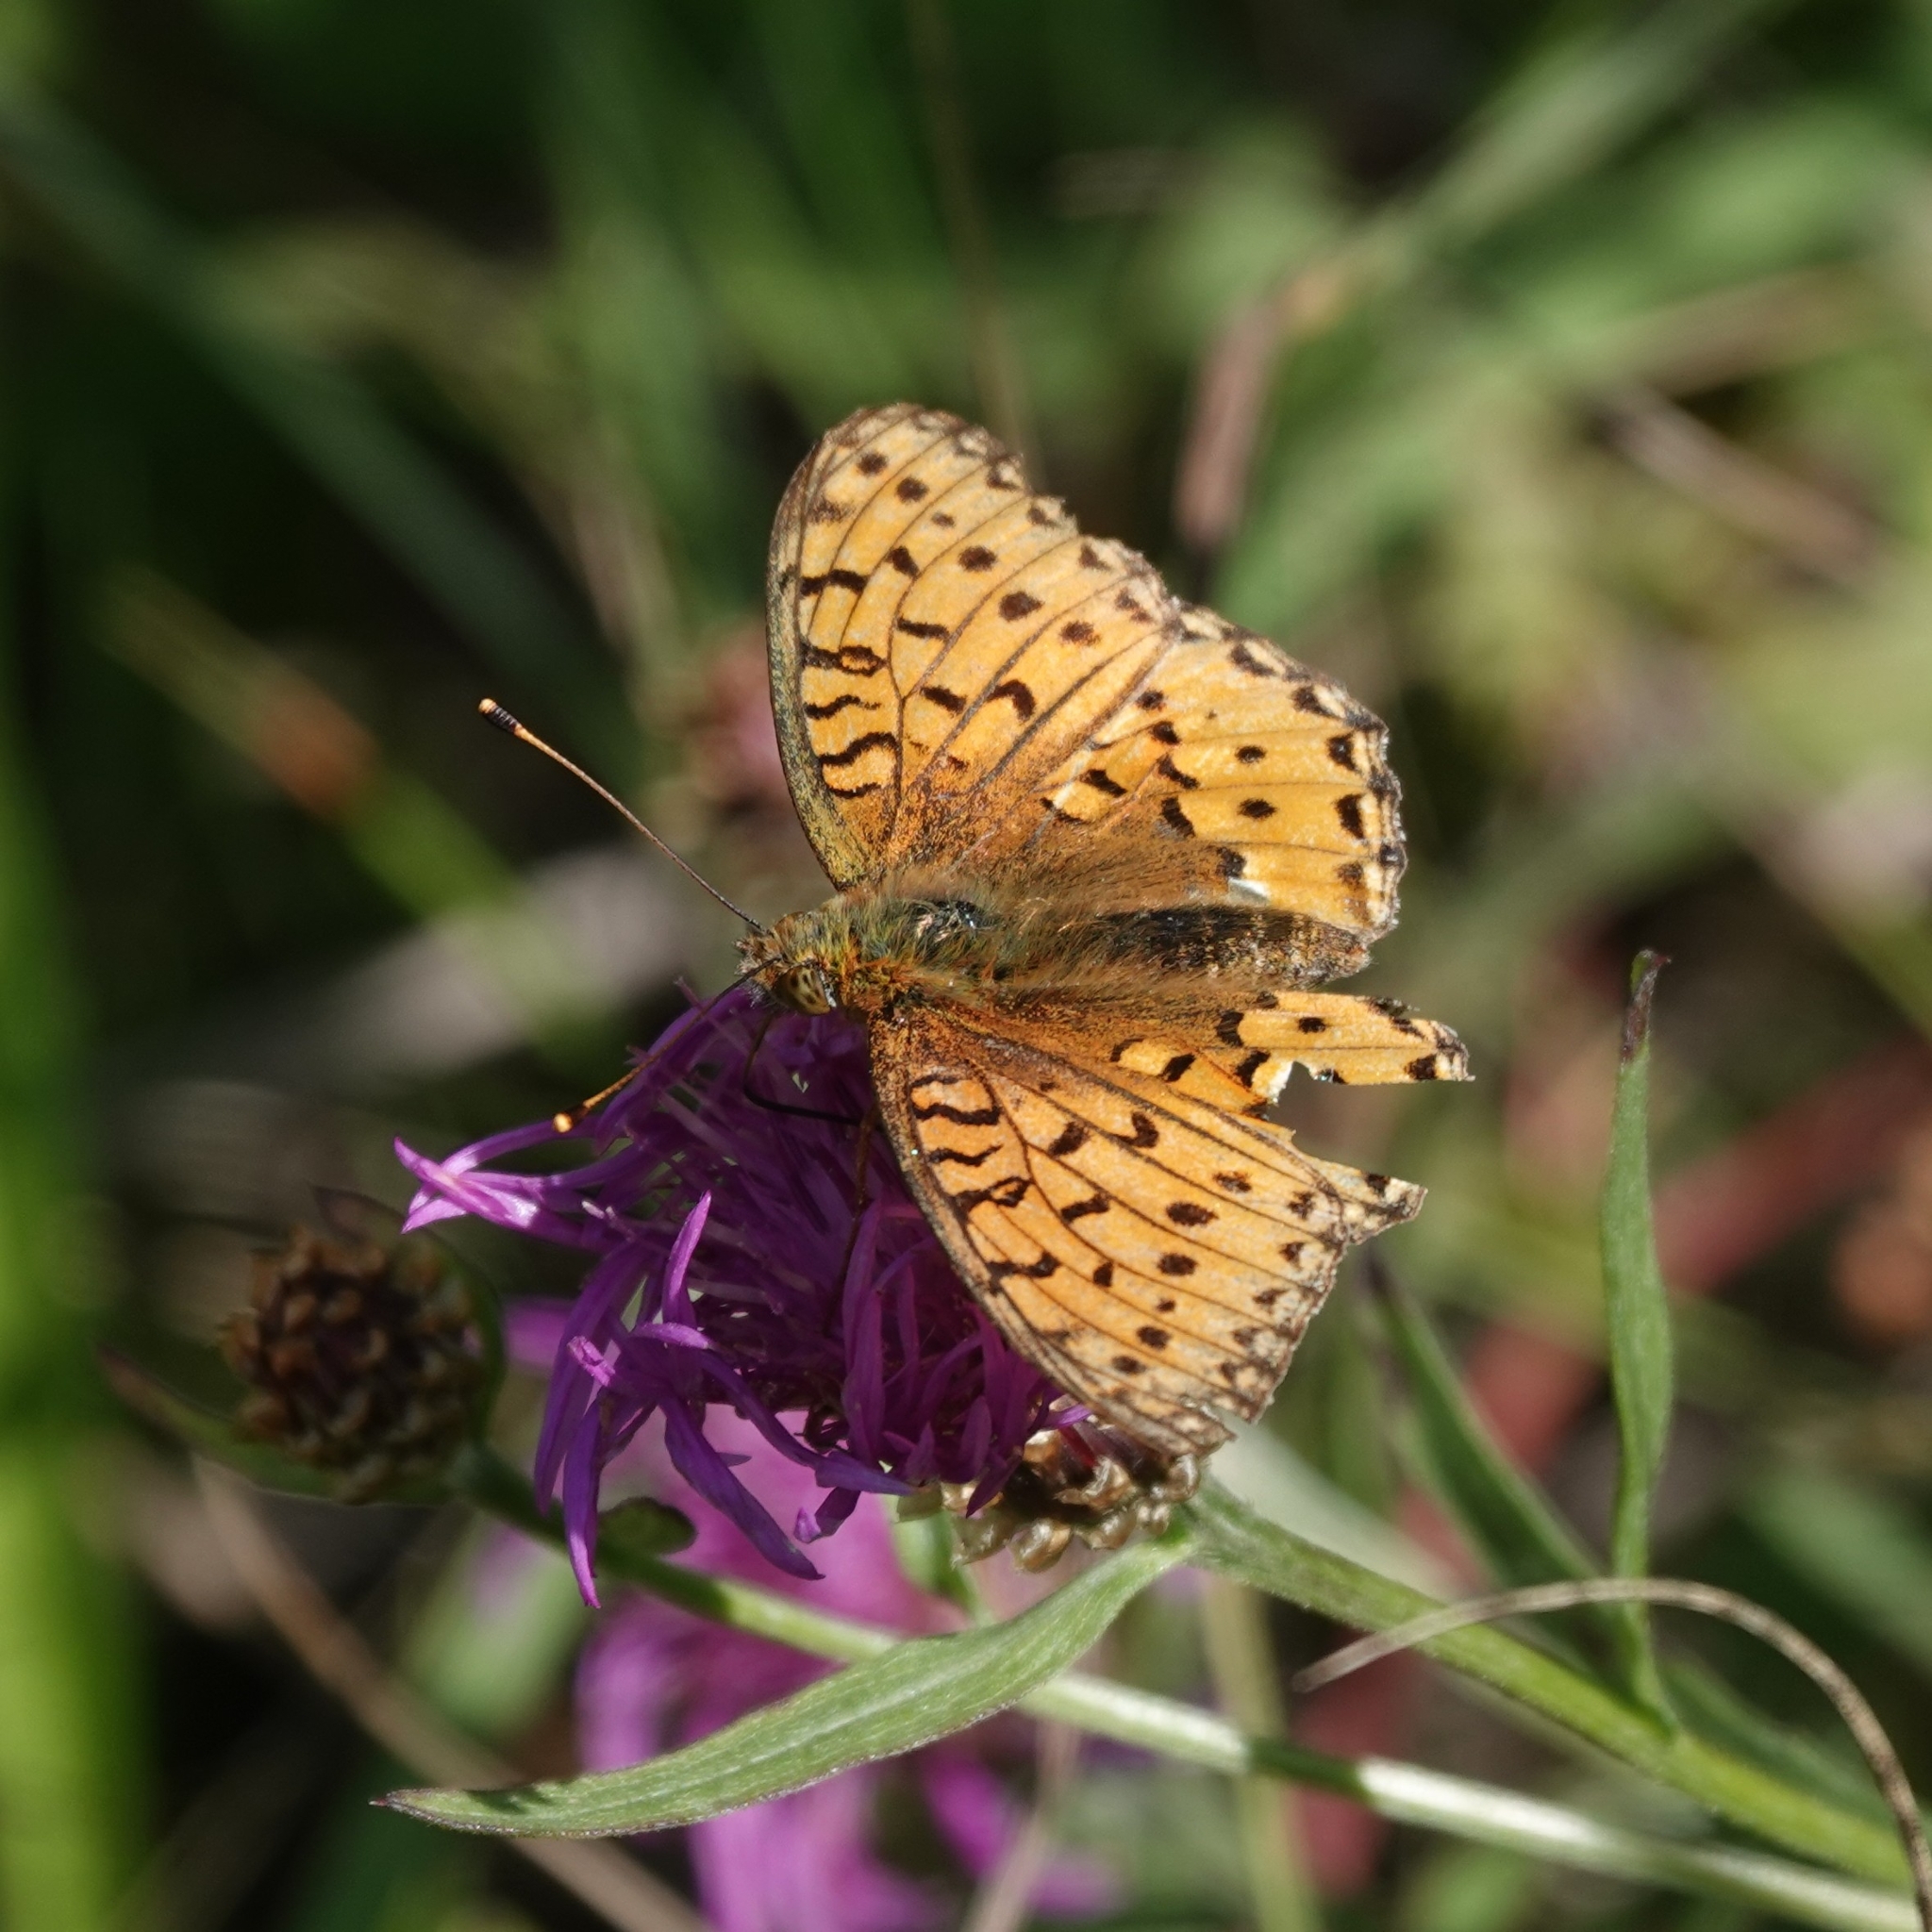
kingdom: Animalia
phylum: Arthropoda
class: Insecta
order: Lepidoptera
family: Nymphalidae
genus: Speyeria
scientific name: Speyeria aglaja
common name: Dark green fritillary
